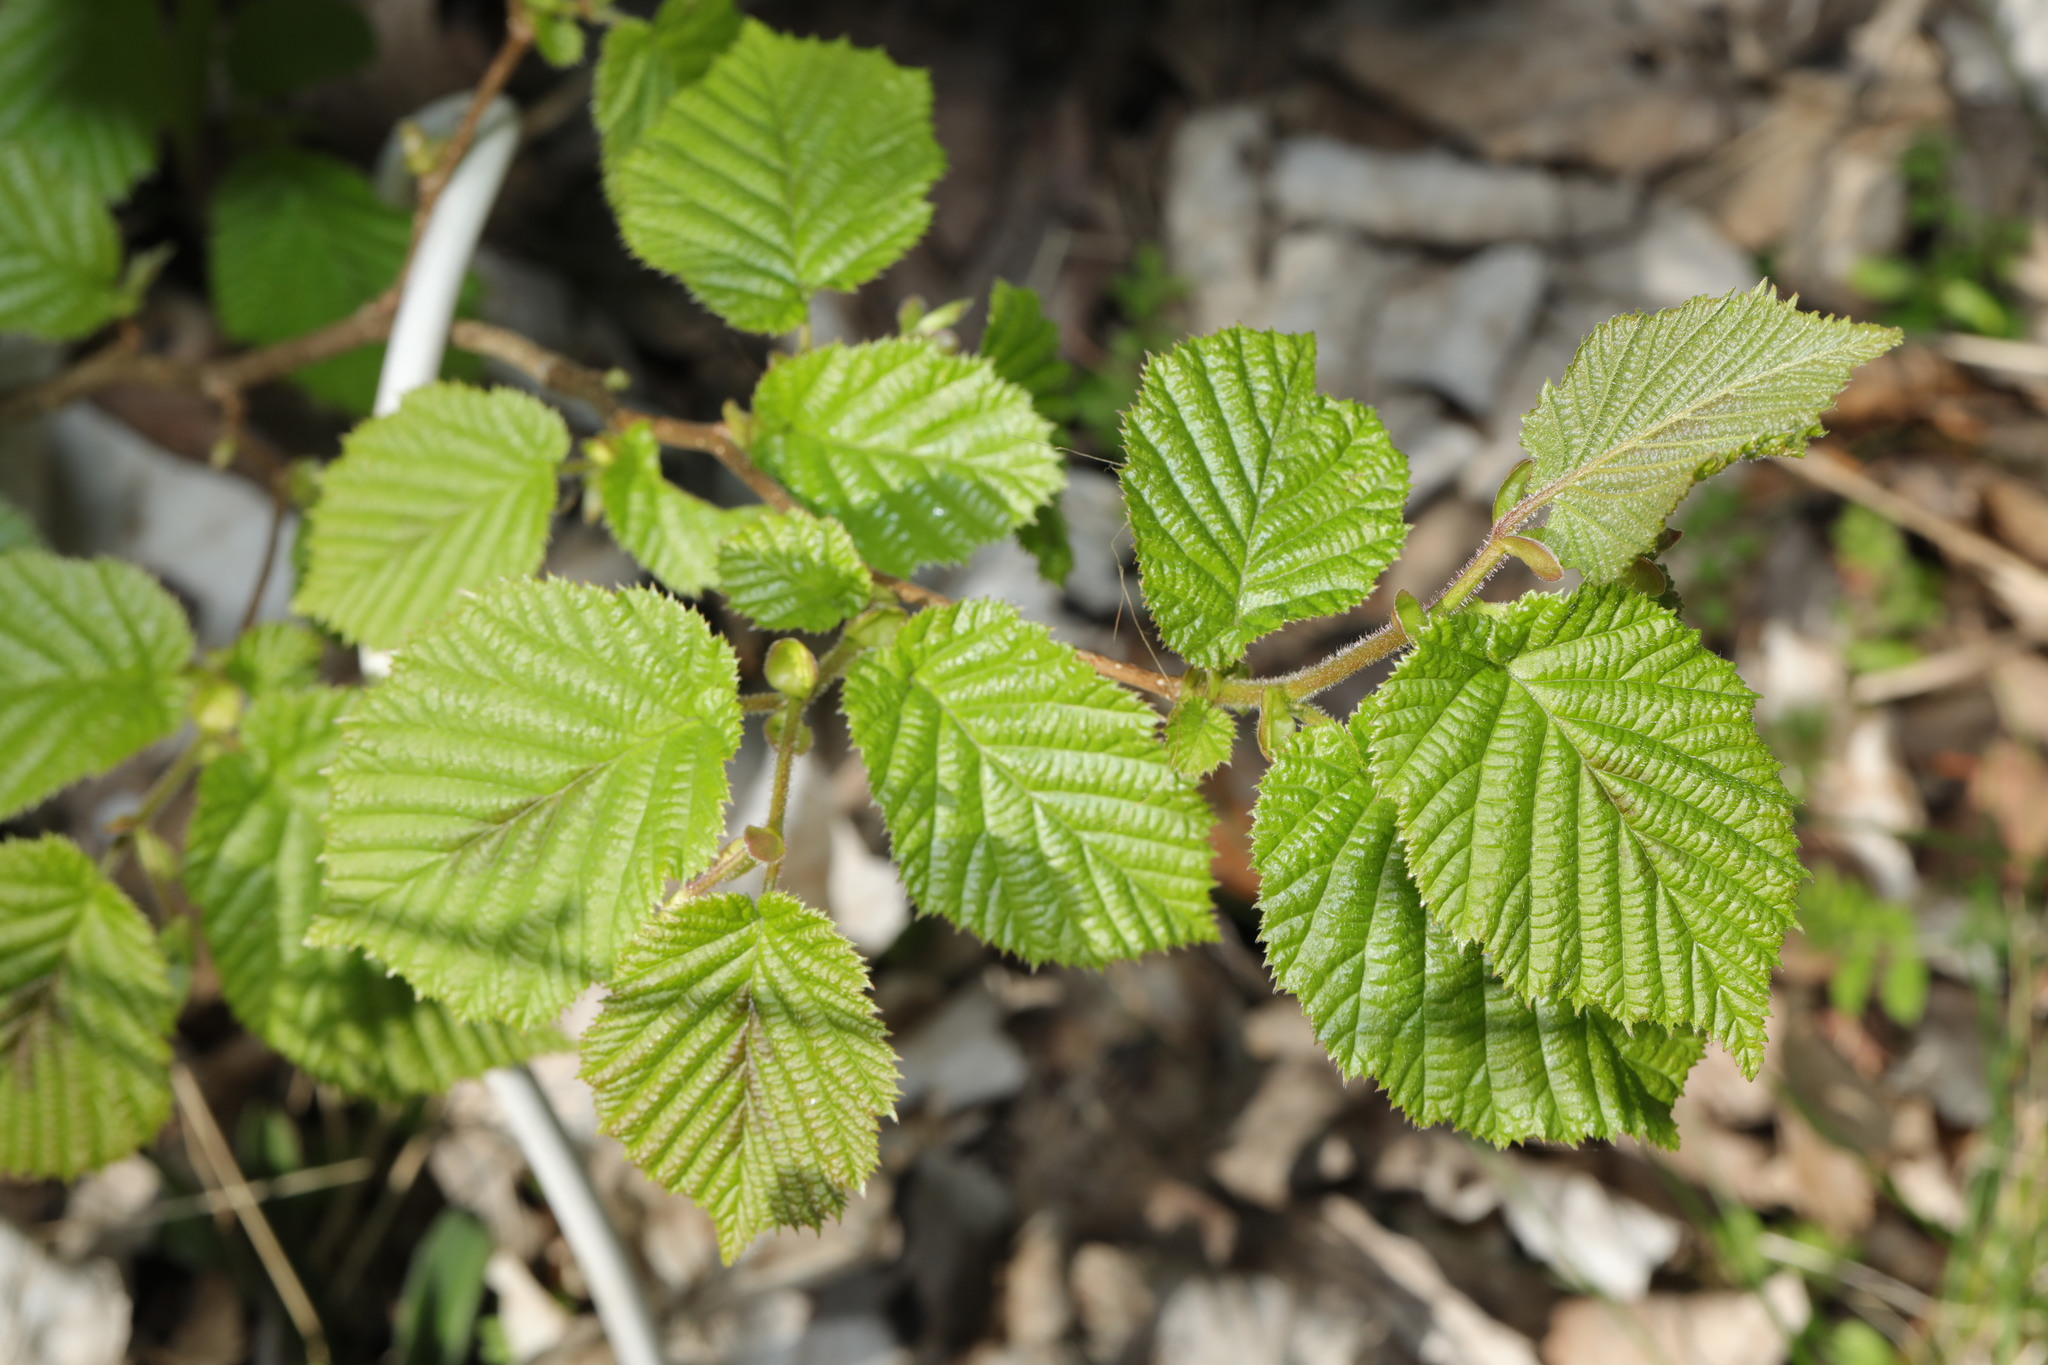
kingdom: Plantae
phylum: Tracheophyta
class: Magnoliopsida
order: Fagales
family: Betulaceae
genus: Corylus
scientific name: Corylus avellana
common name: European hazel
